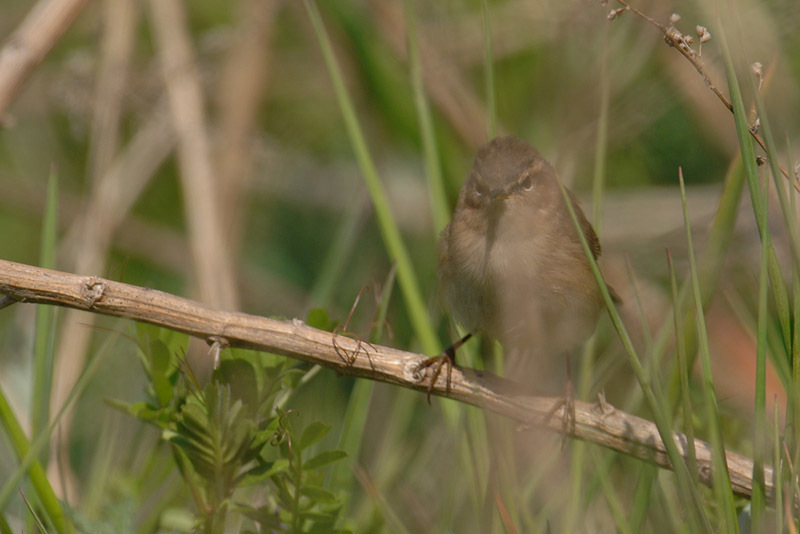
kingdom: Animalia
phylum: Chordata
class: Aves
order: Passeriformes
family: Phylloscopidae
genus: Phylloscopus
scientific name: Phylloscopus fuscatus
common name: Dusky warbler
